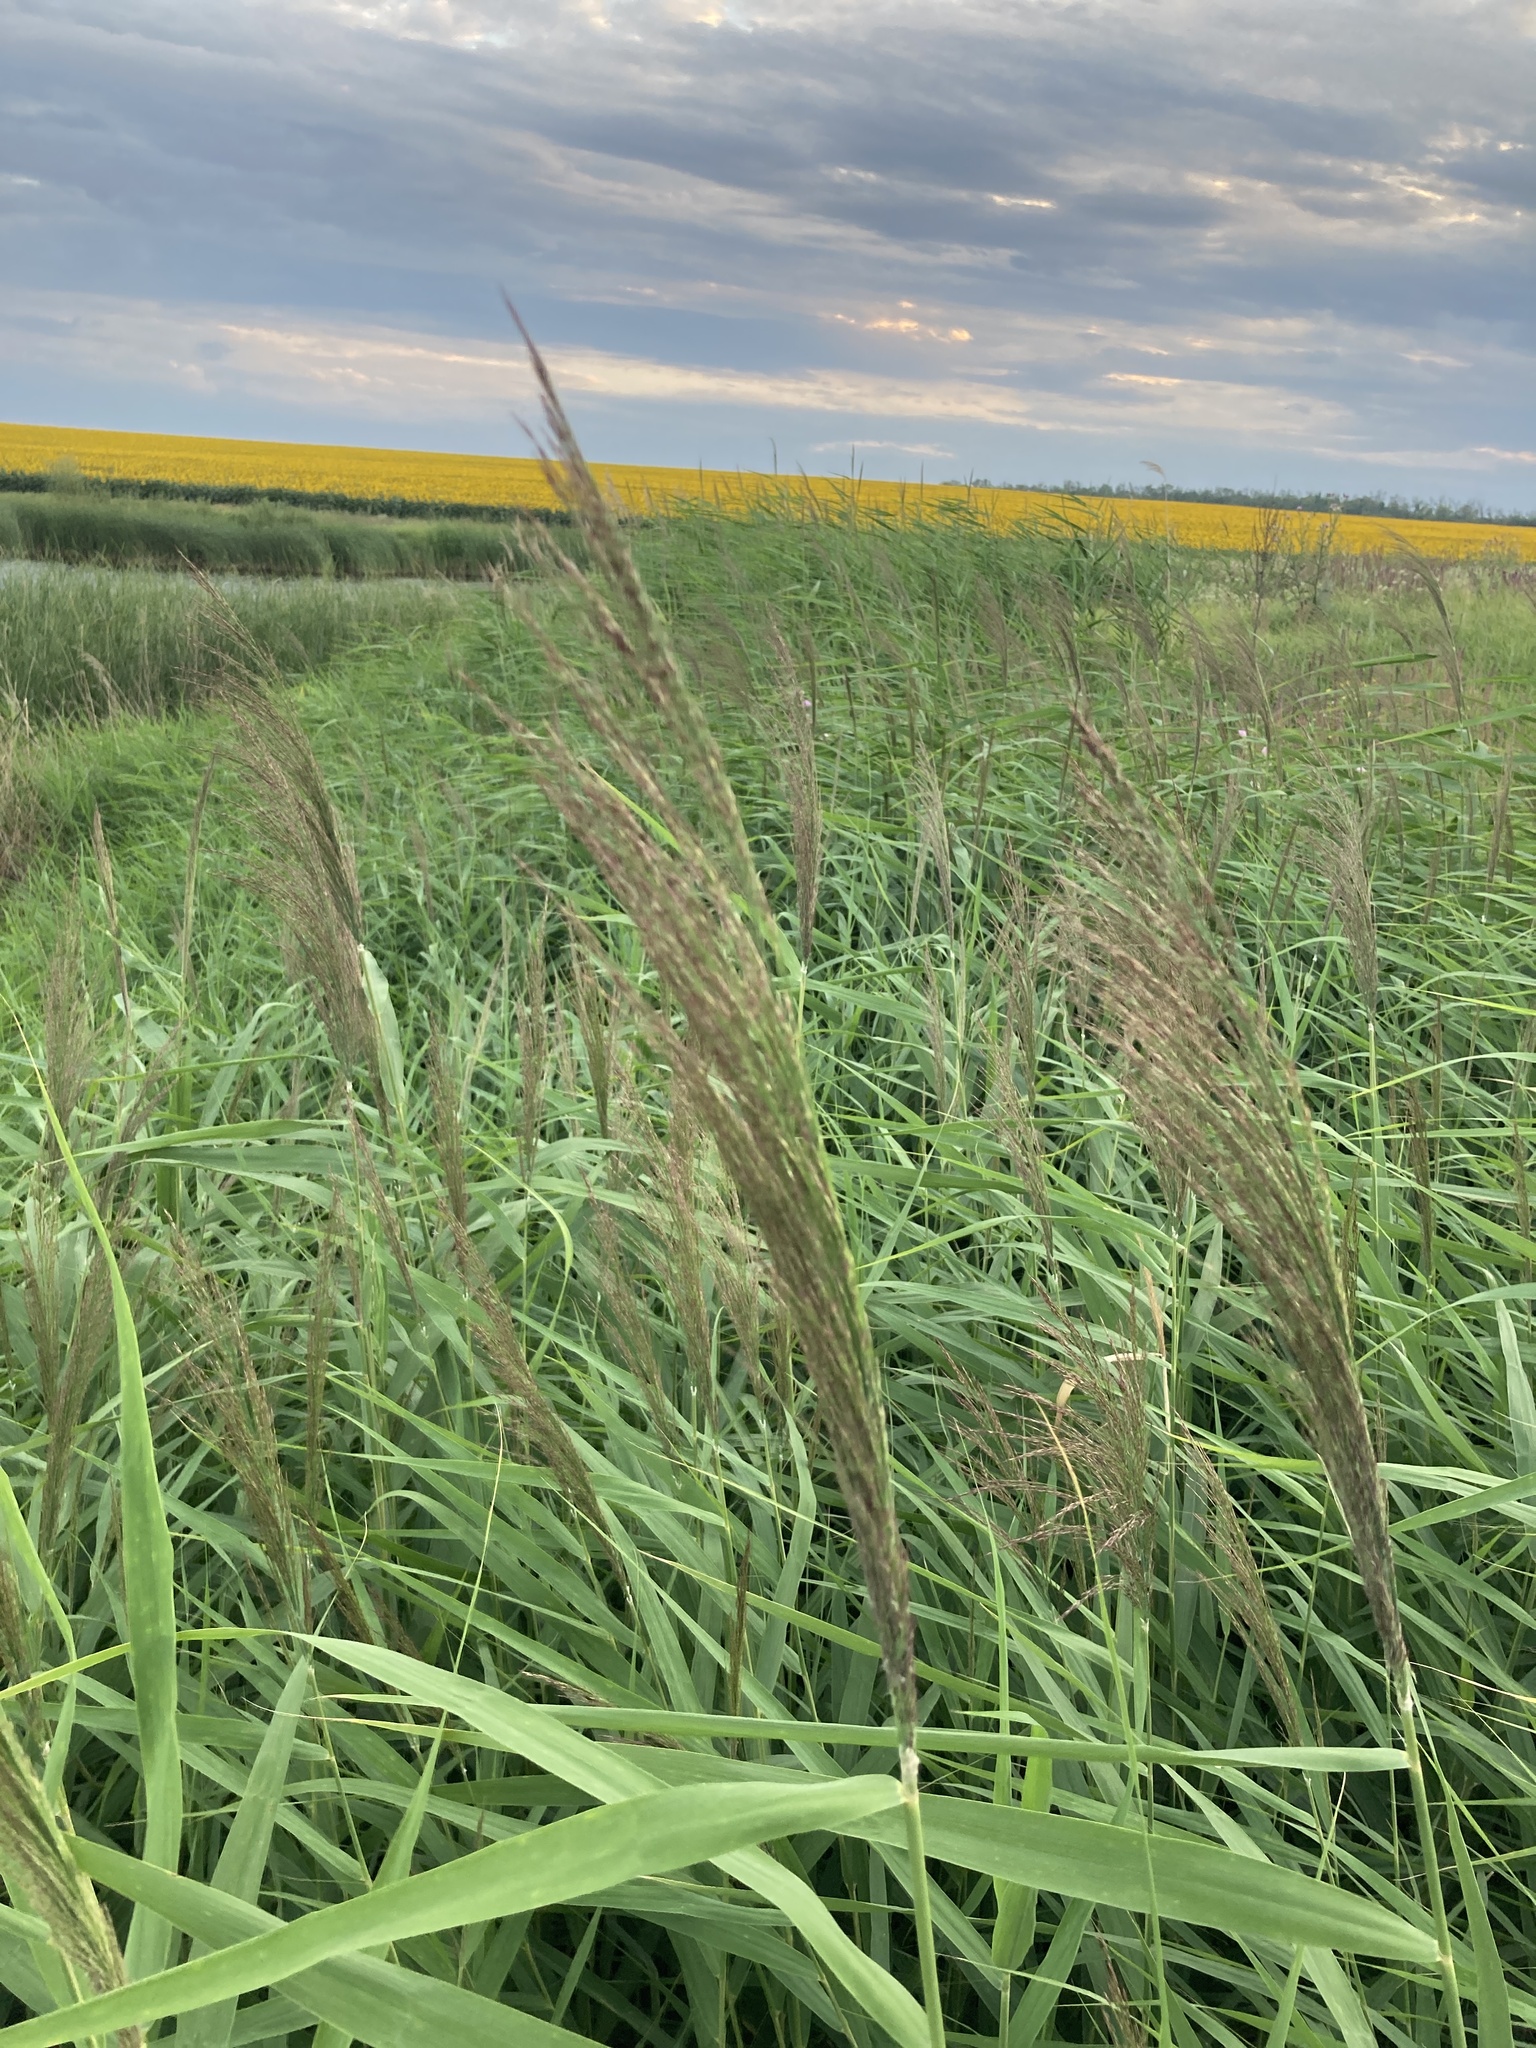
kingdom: Plantae
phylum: Tracheophyta
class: Liliopsida
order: Poales
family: Poaceae
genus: Phragmites
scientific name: Phragmites australis
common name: Common reed
